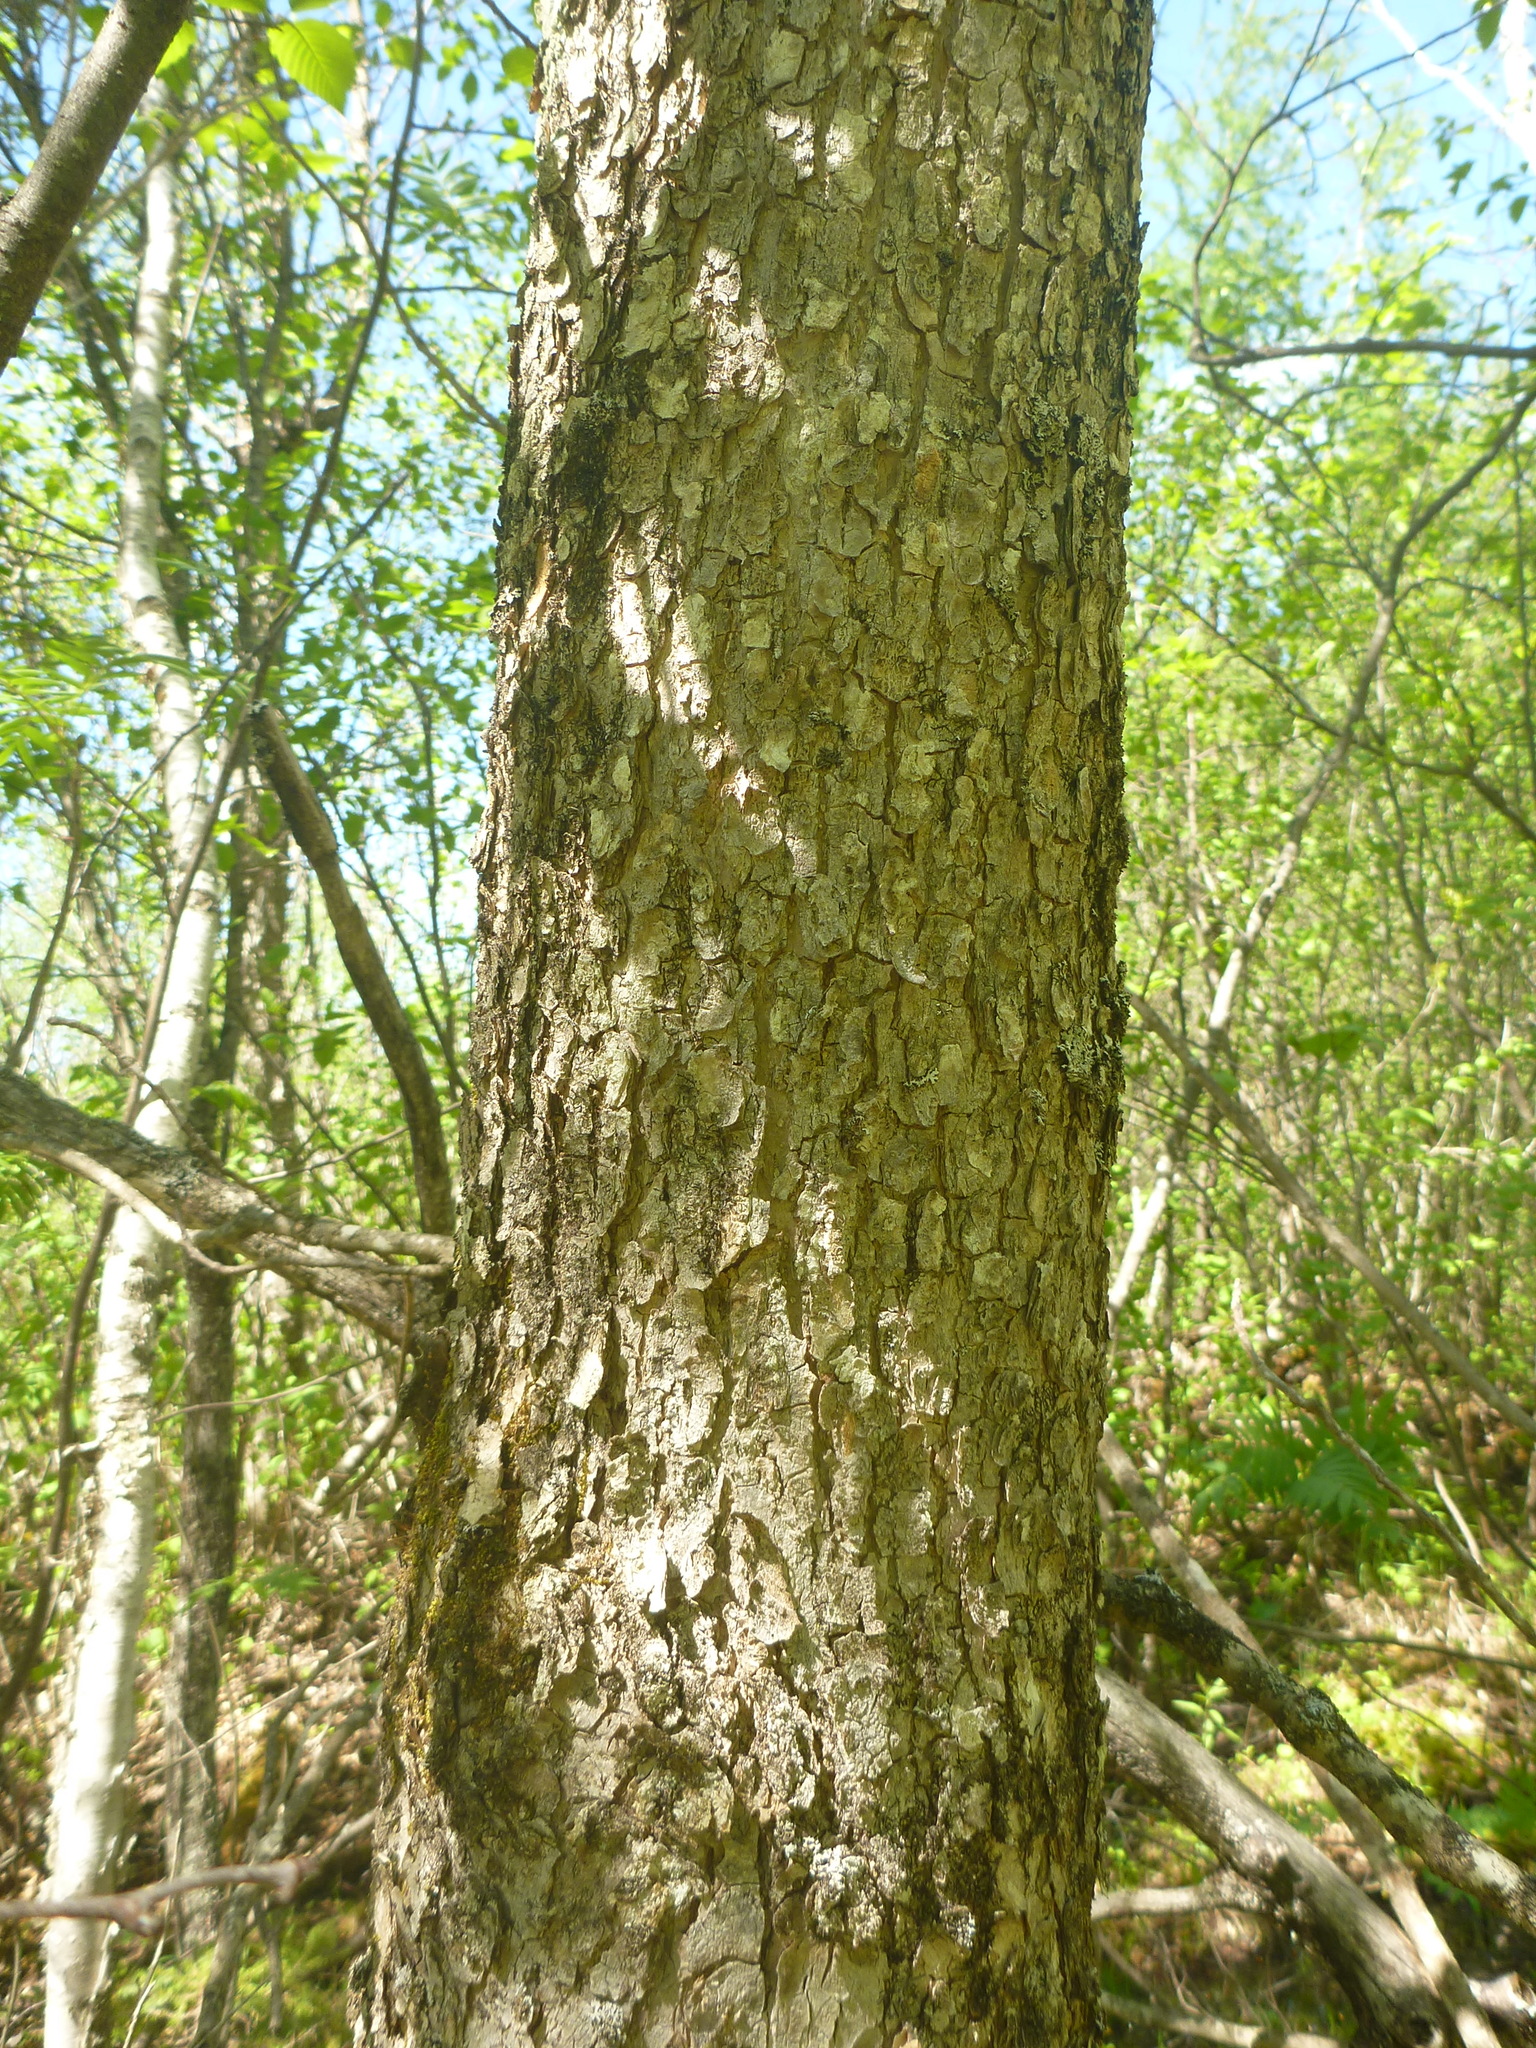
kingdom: Plantae
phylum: Tracheophyta
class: Magnoliopsida
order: Lamiales
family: Oleaceae
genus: Fraxinus
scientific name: Fraxinus nigra
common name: Black ash
